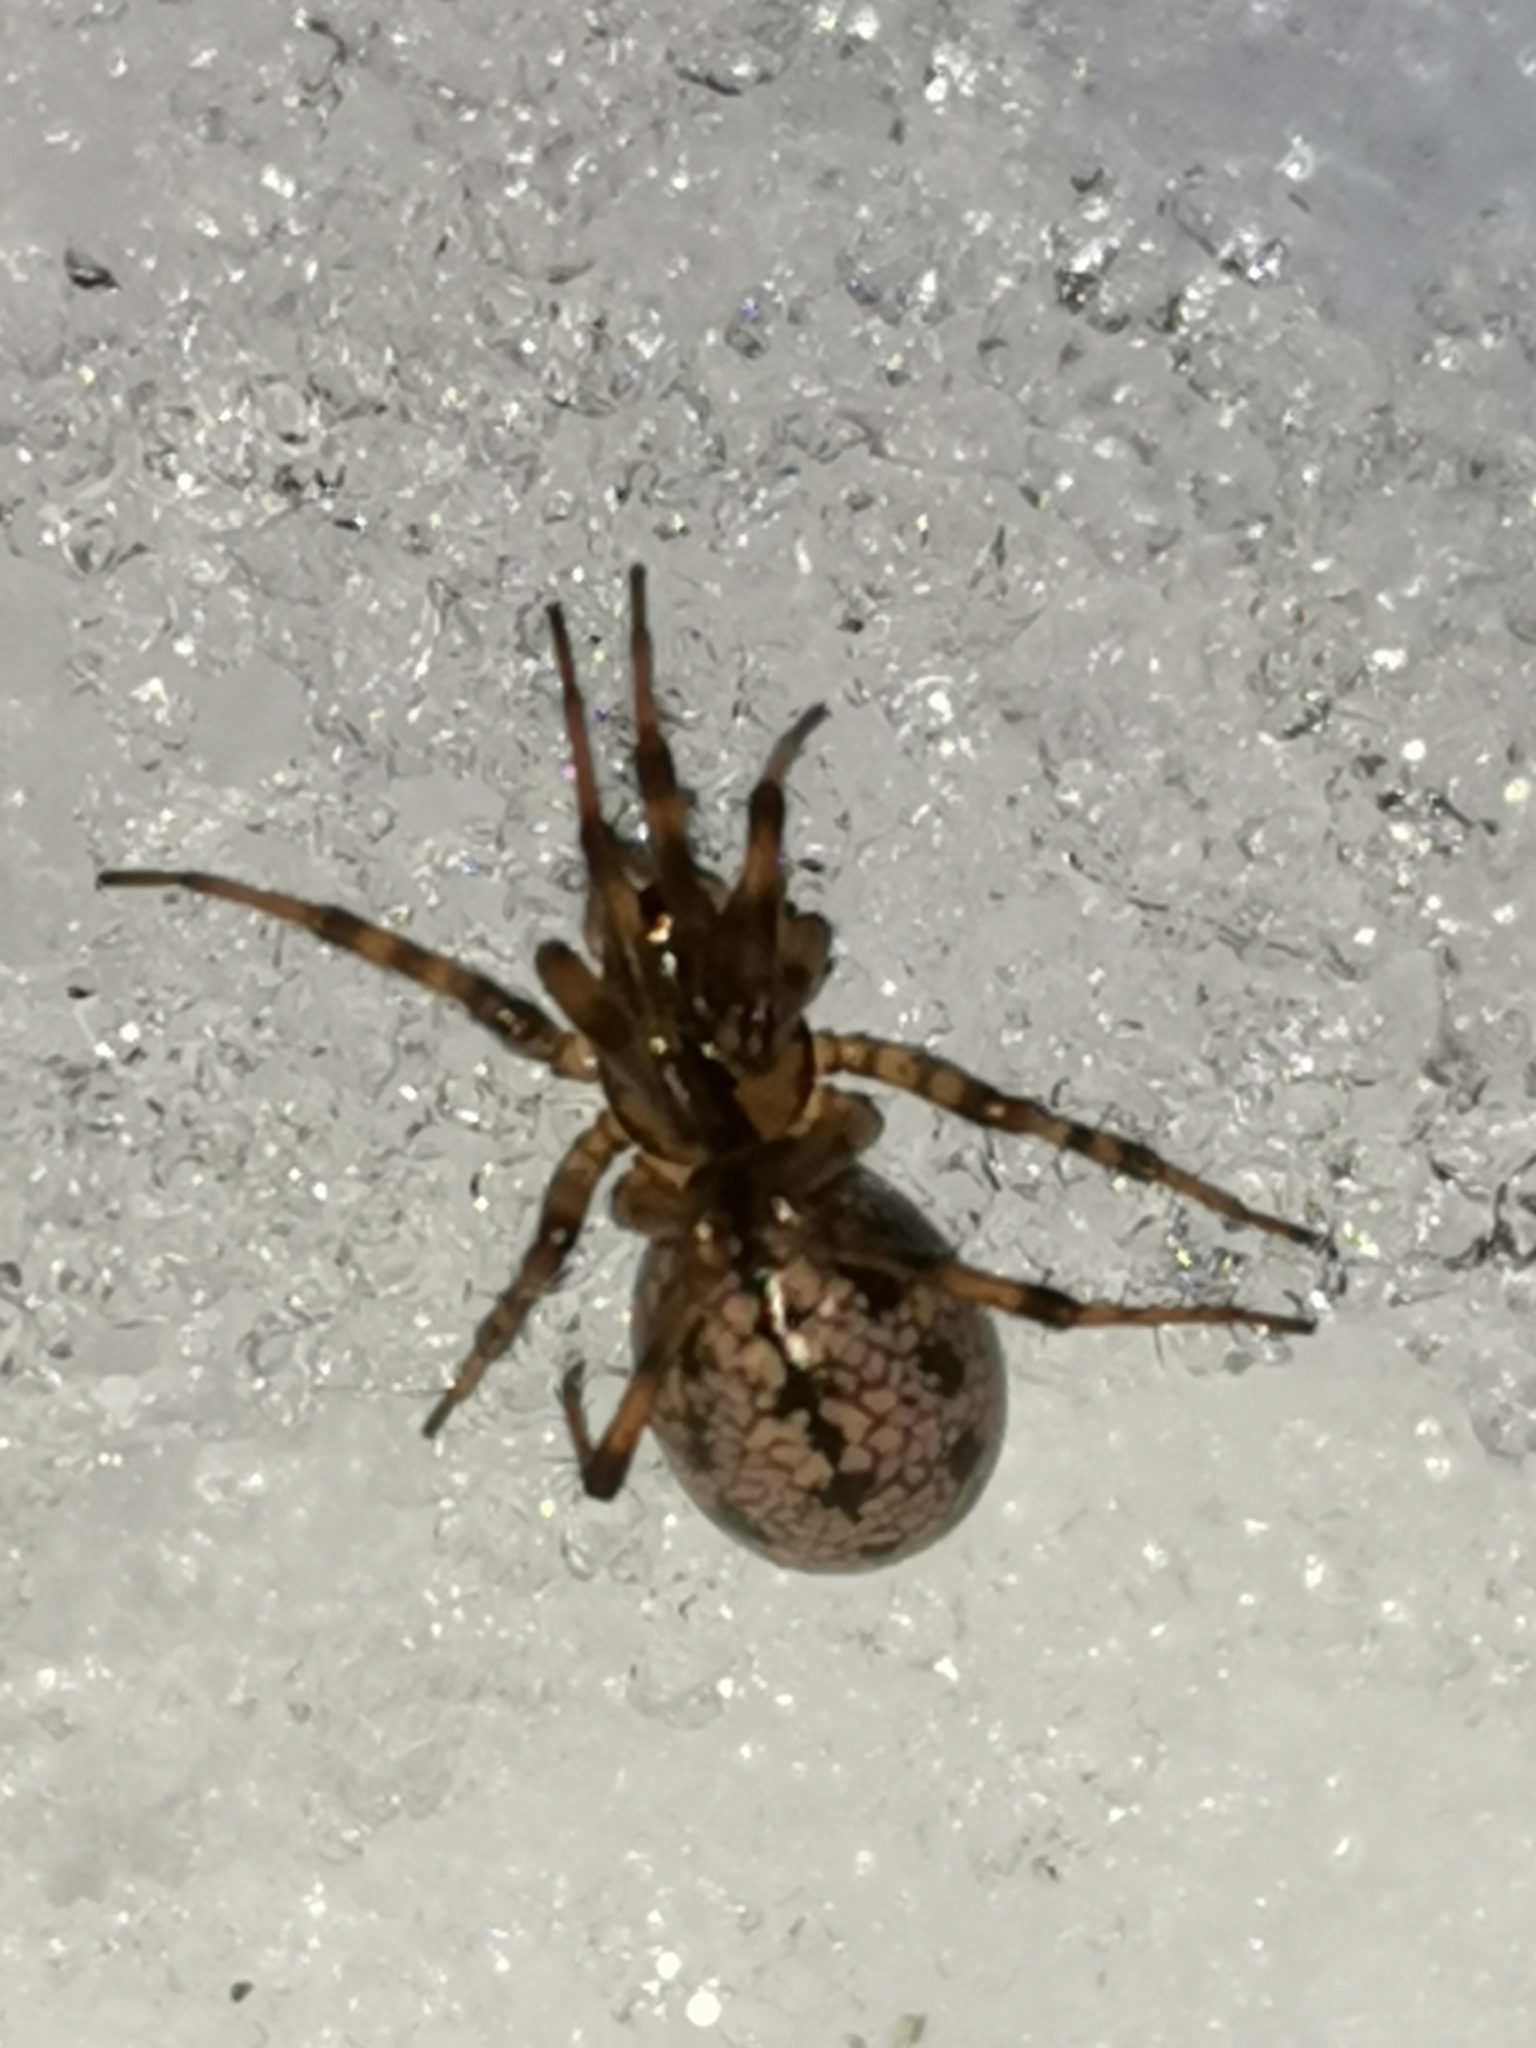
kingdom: Animalia
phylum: Arthropoda
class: Arachnida
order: Araneae
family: Linyphiidae
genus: Stemonyphantes
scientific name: Stemonyphantes lineatus
